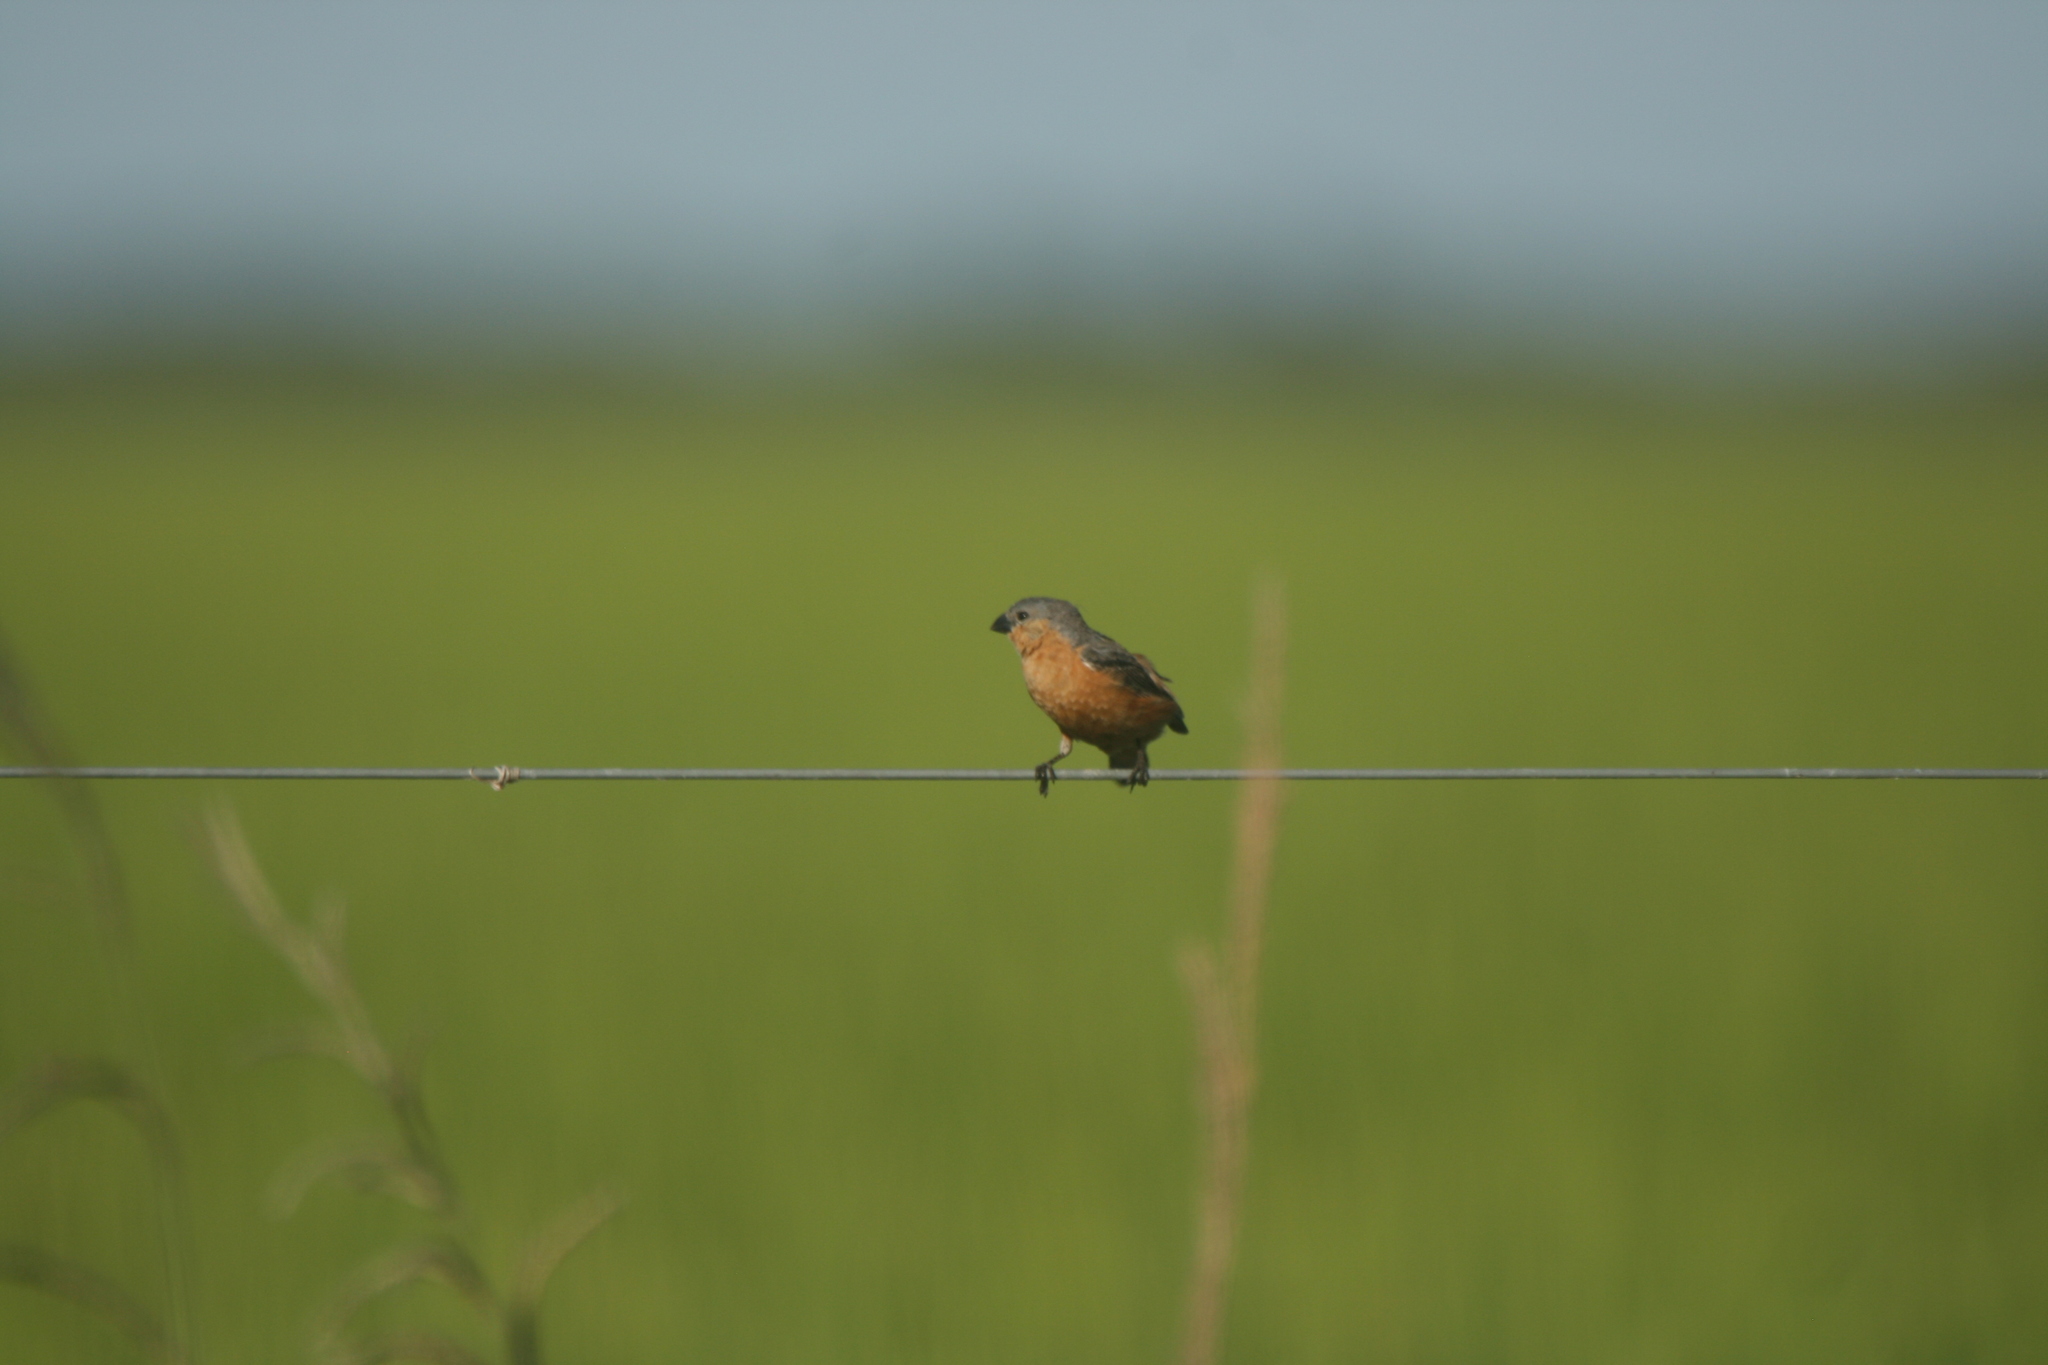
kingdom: Animalia
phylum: Chordata
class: Aves
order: Passeriformes
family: Thraupidae
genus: Sporophila
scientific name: Sporophila hypoxantha
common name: Tawny-bellied seedeater
